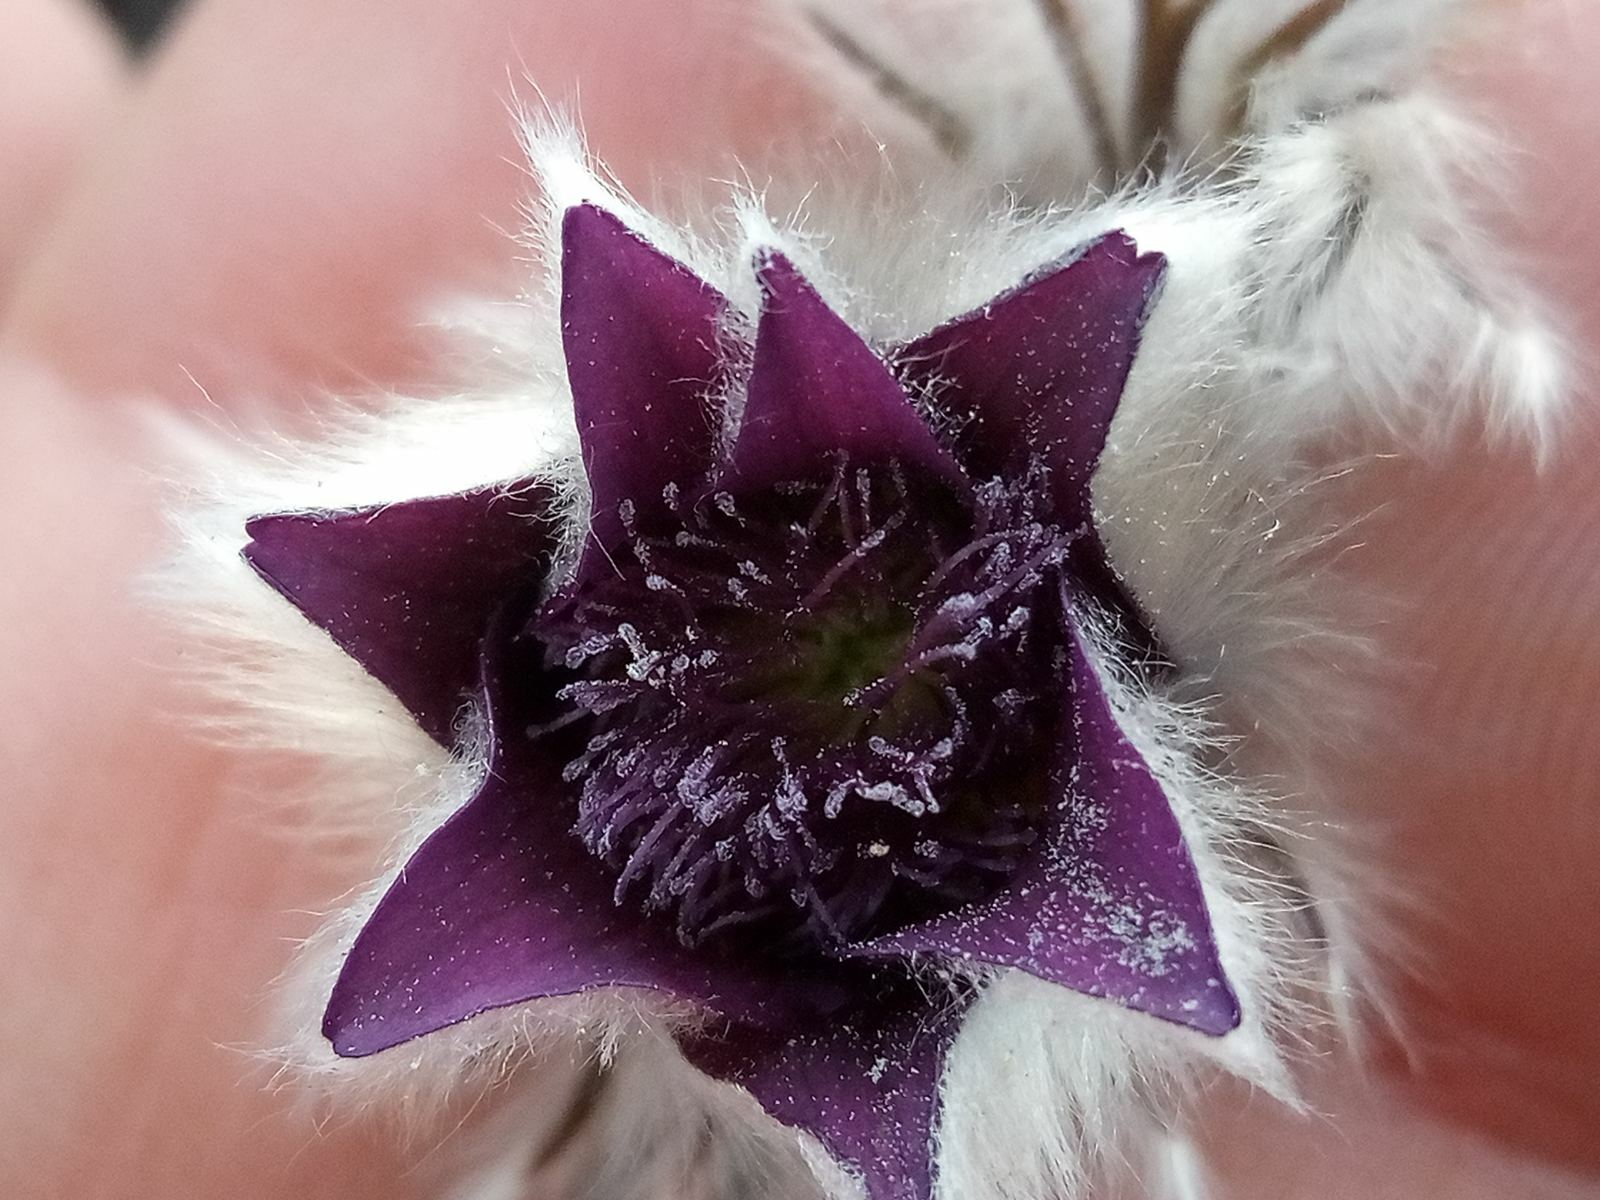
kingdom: Plantae
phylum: Tracheophyta
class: Magnoliopsida
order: Ranunculales
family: Ranunculaceae
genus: Pulsatilla
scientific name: Pulsatilla pratensis
